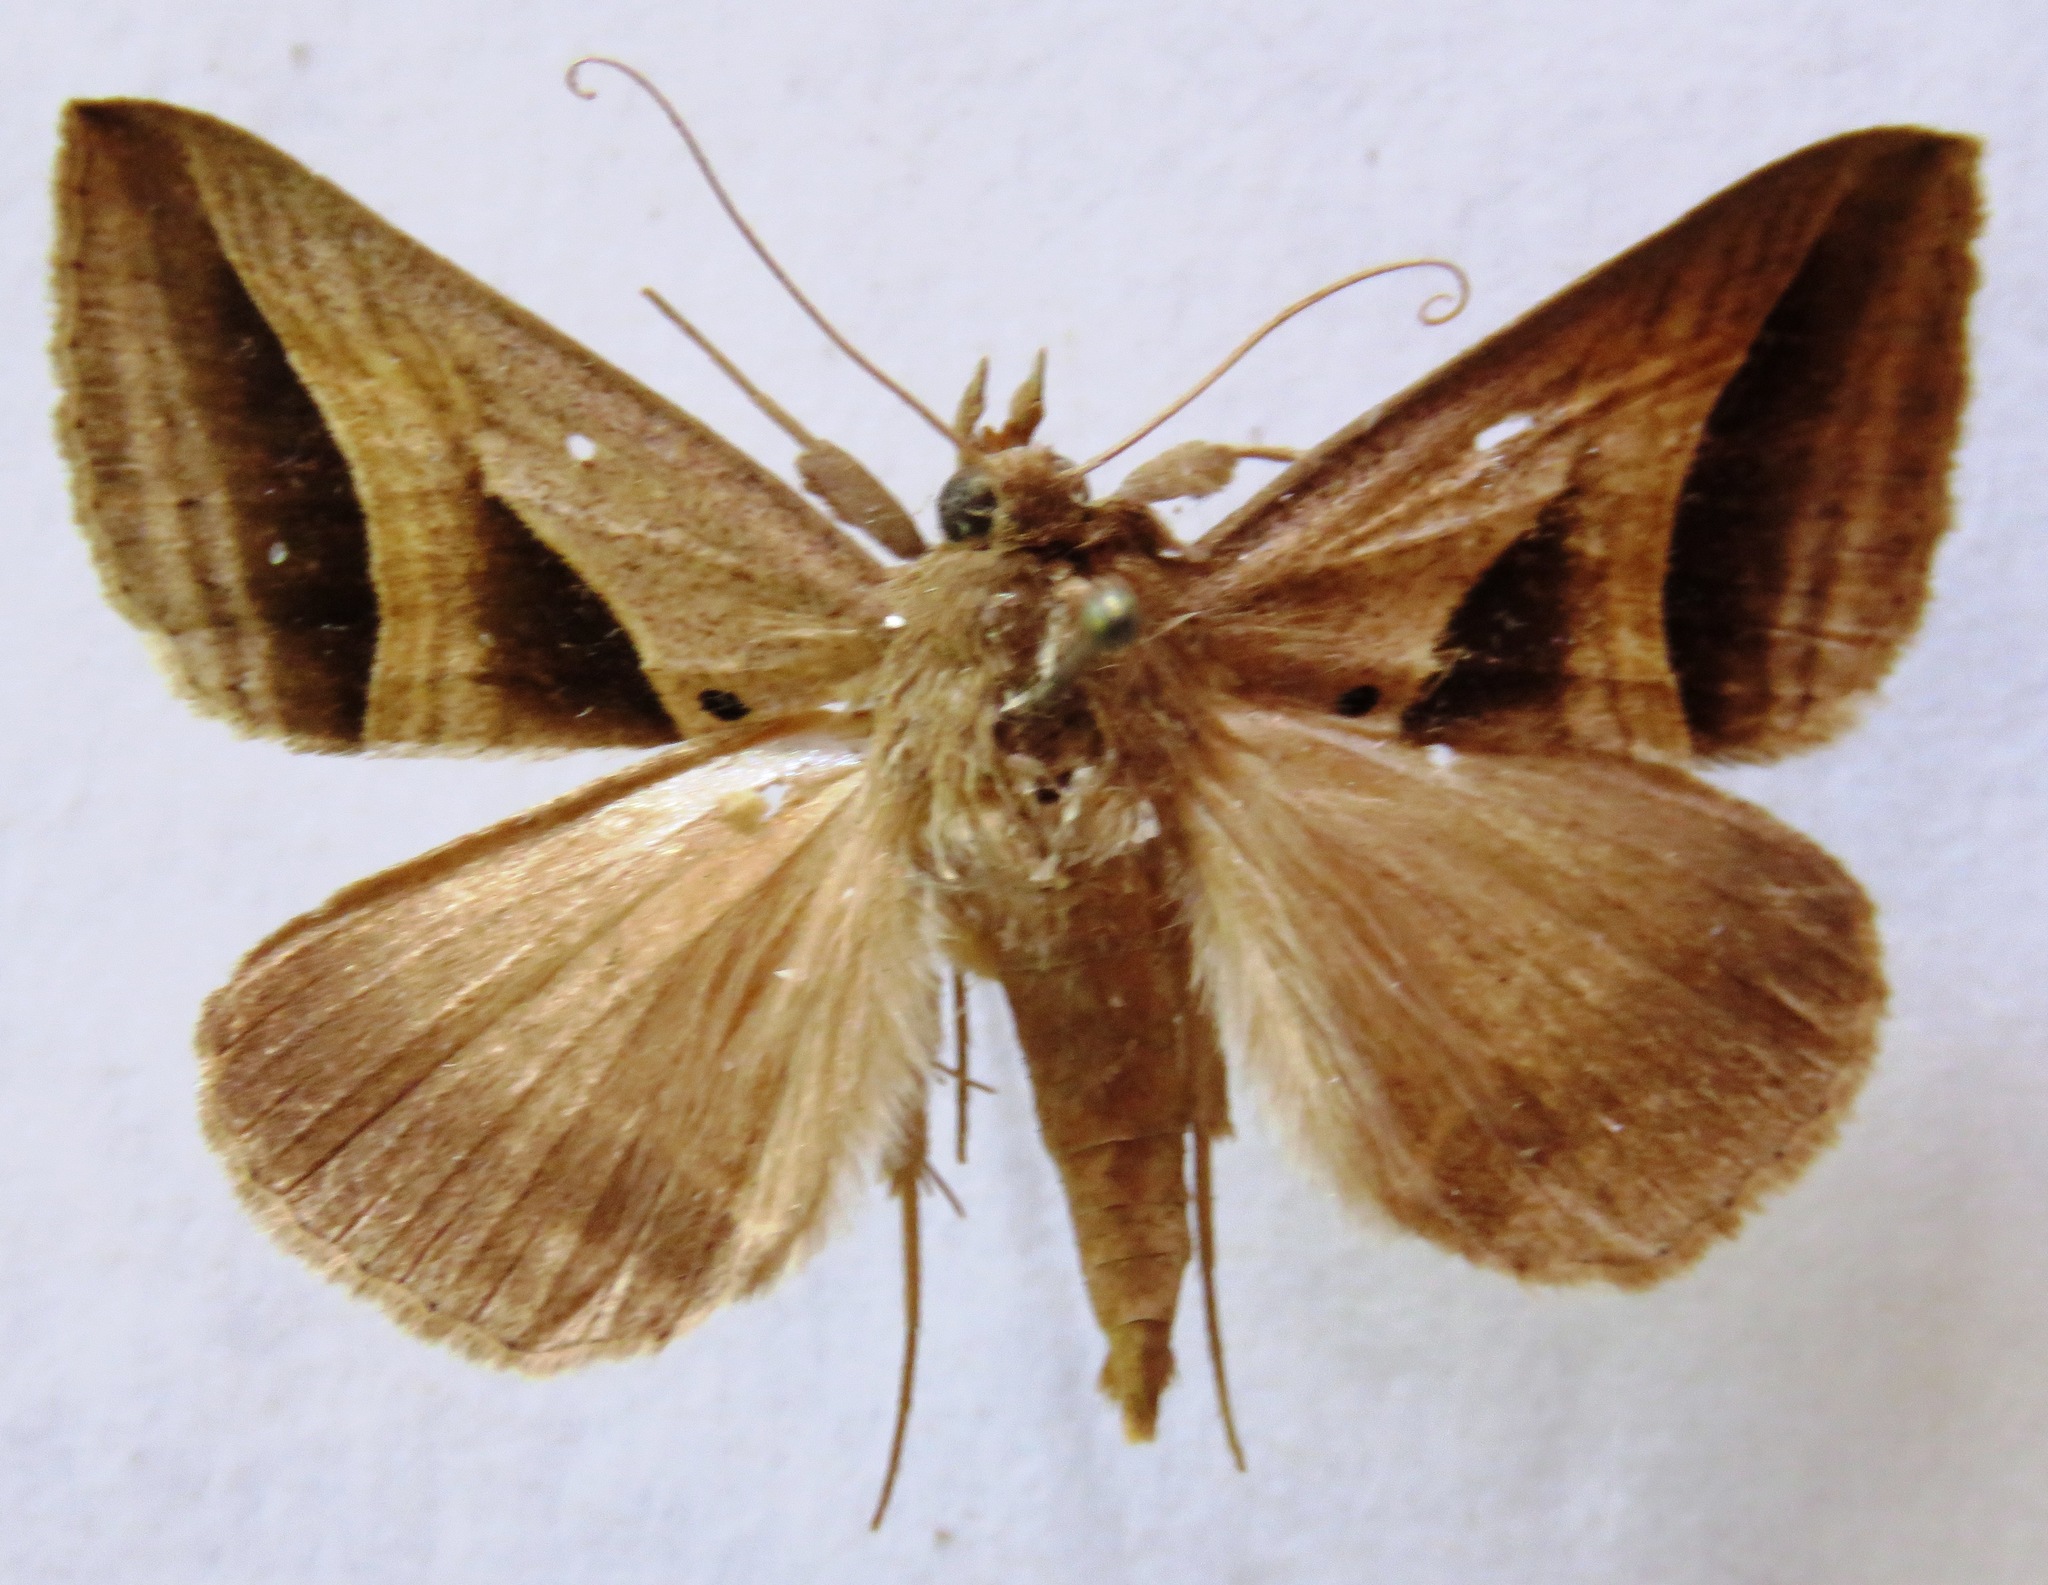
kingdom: Animalia
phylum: Arthropoda
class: Insecta
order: Lepidoptera
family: Erebidae
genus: Perasia
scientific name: Perasia garnoti
